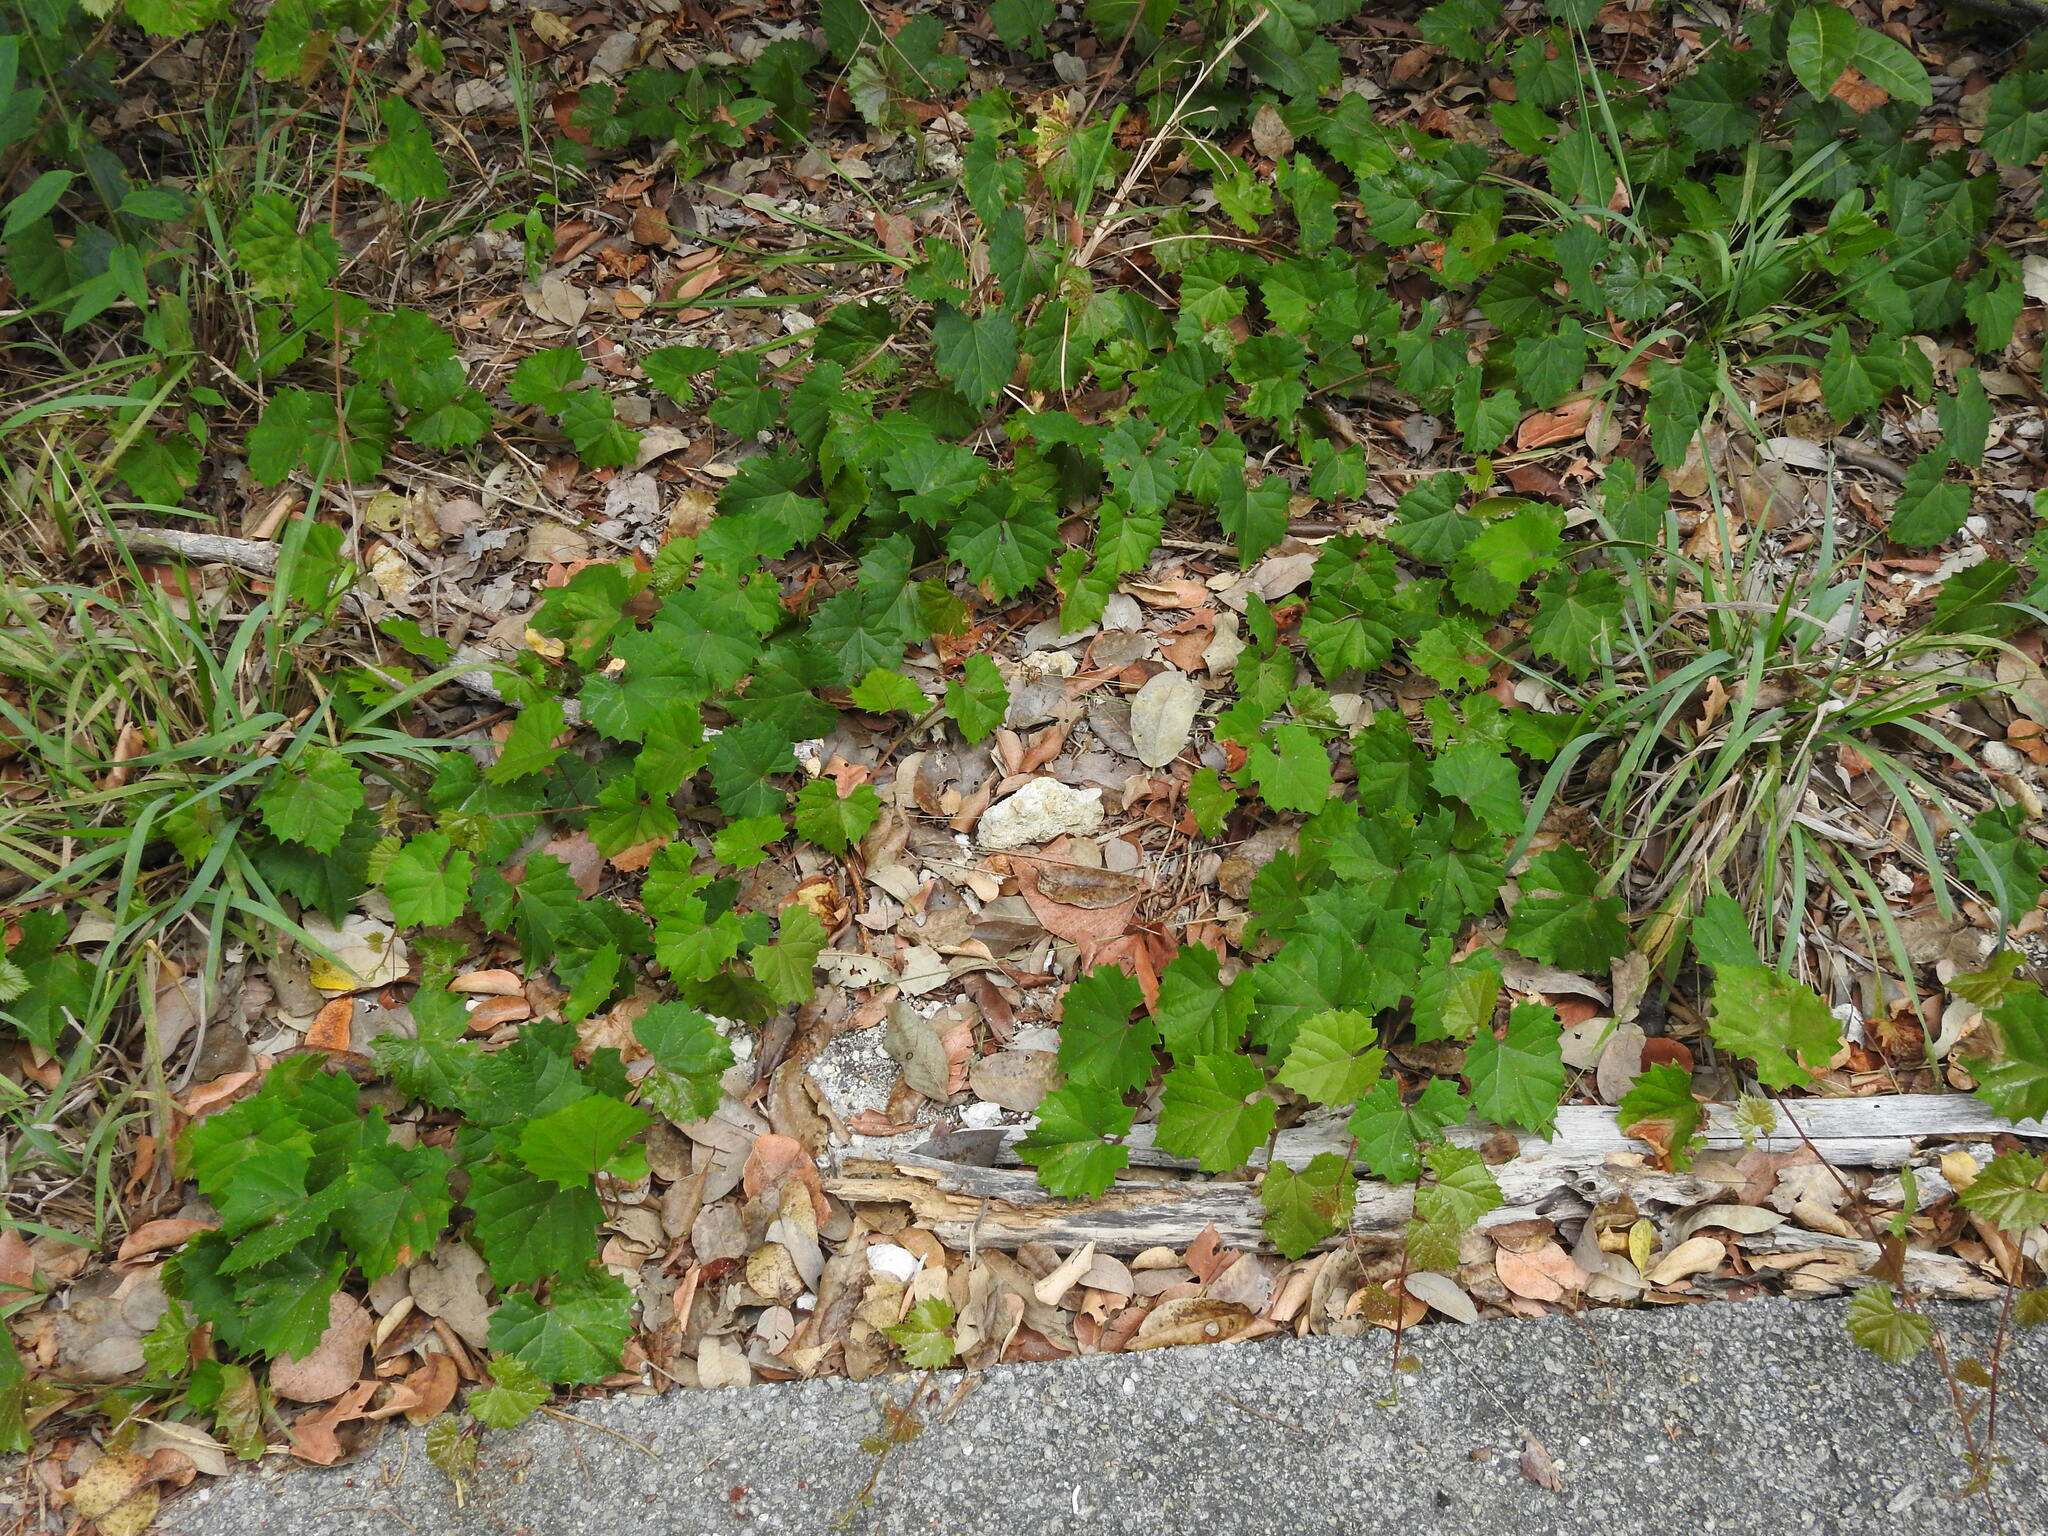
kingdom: Plantae
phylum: Tracheophyta
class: Magnoliopsida
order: Vitales
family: Vitaceae
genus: Vitis
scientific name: Vitis rotundifolia
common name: Muscadine grape
